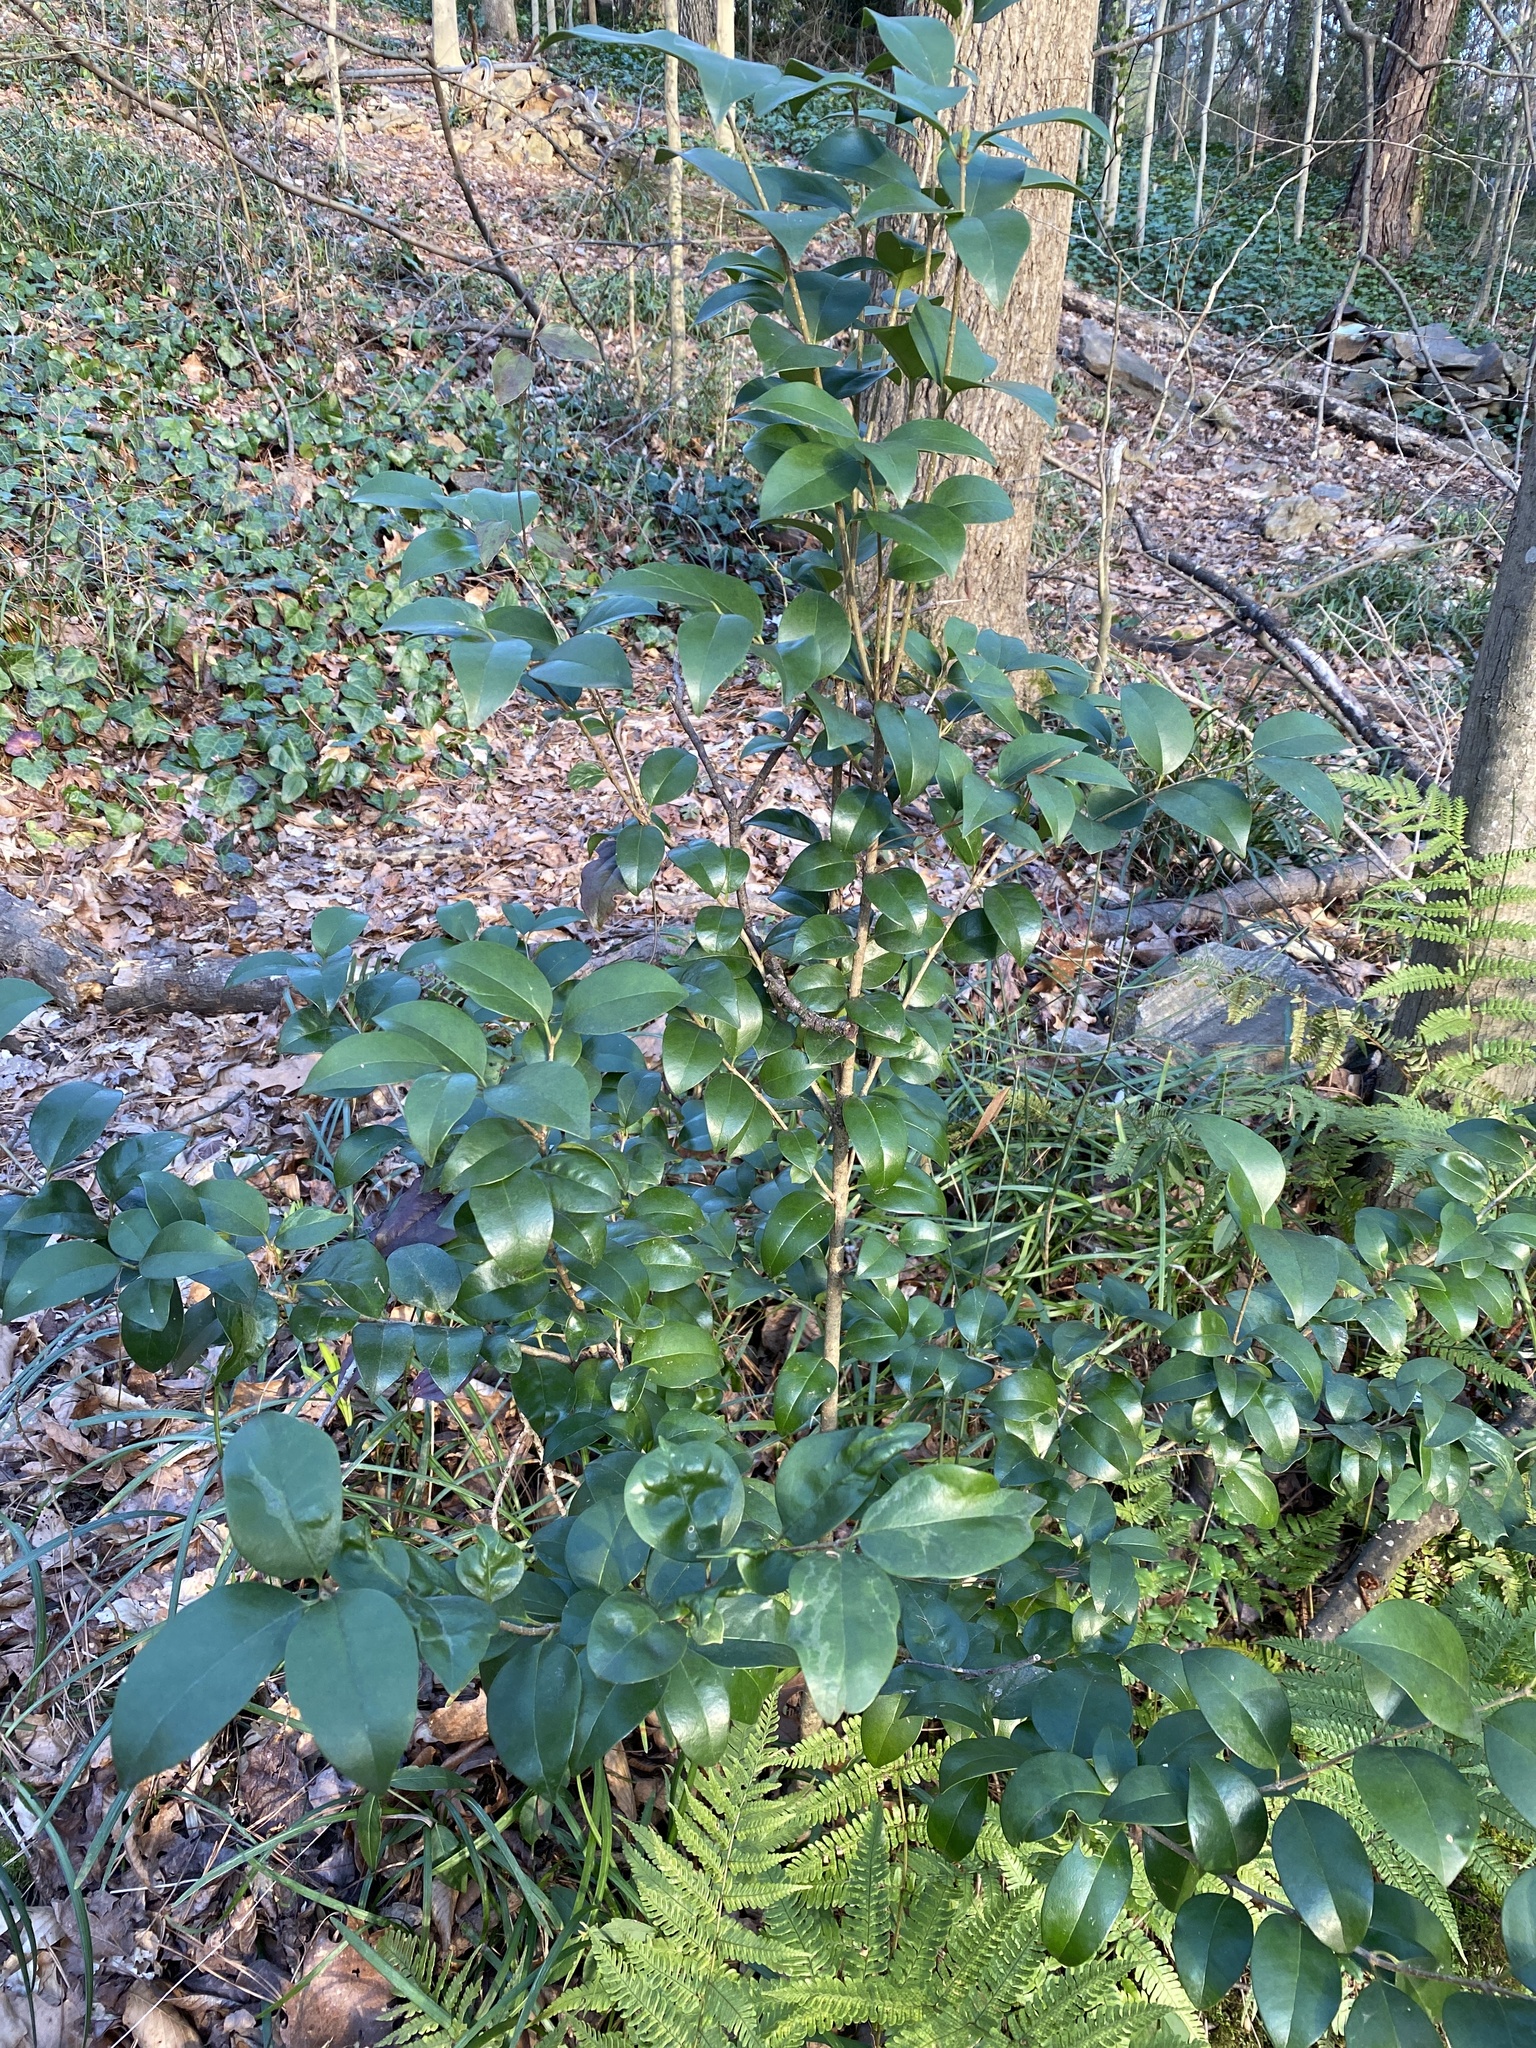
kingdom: Plantae
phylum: Tracheophyta
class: Magnoliopsida
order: Lamiales
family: Oleaceae
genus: Ligustrum
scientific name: Ligustrum lucidum
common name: Glossy privet
